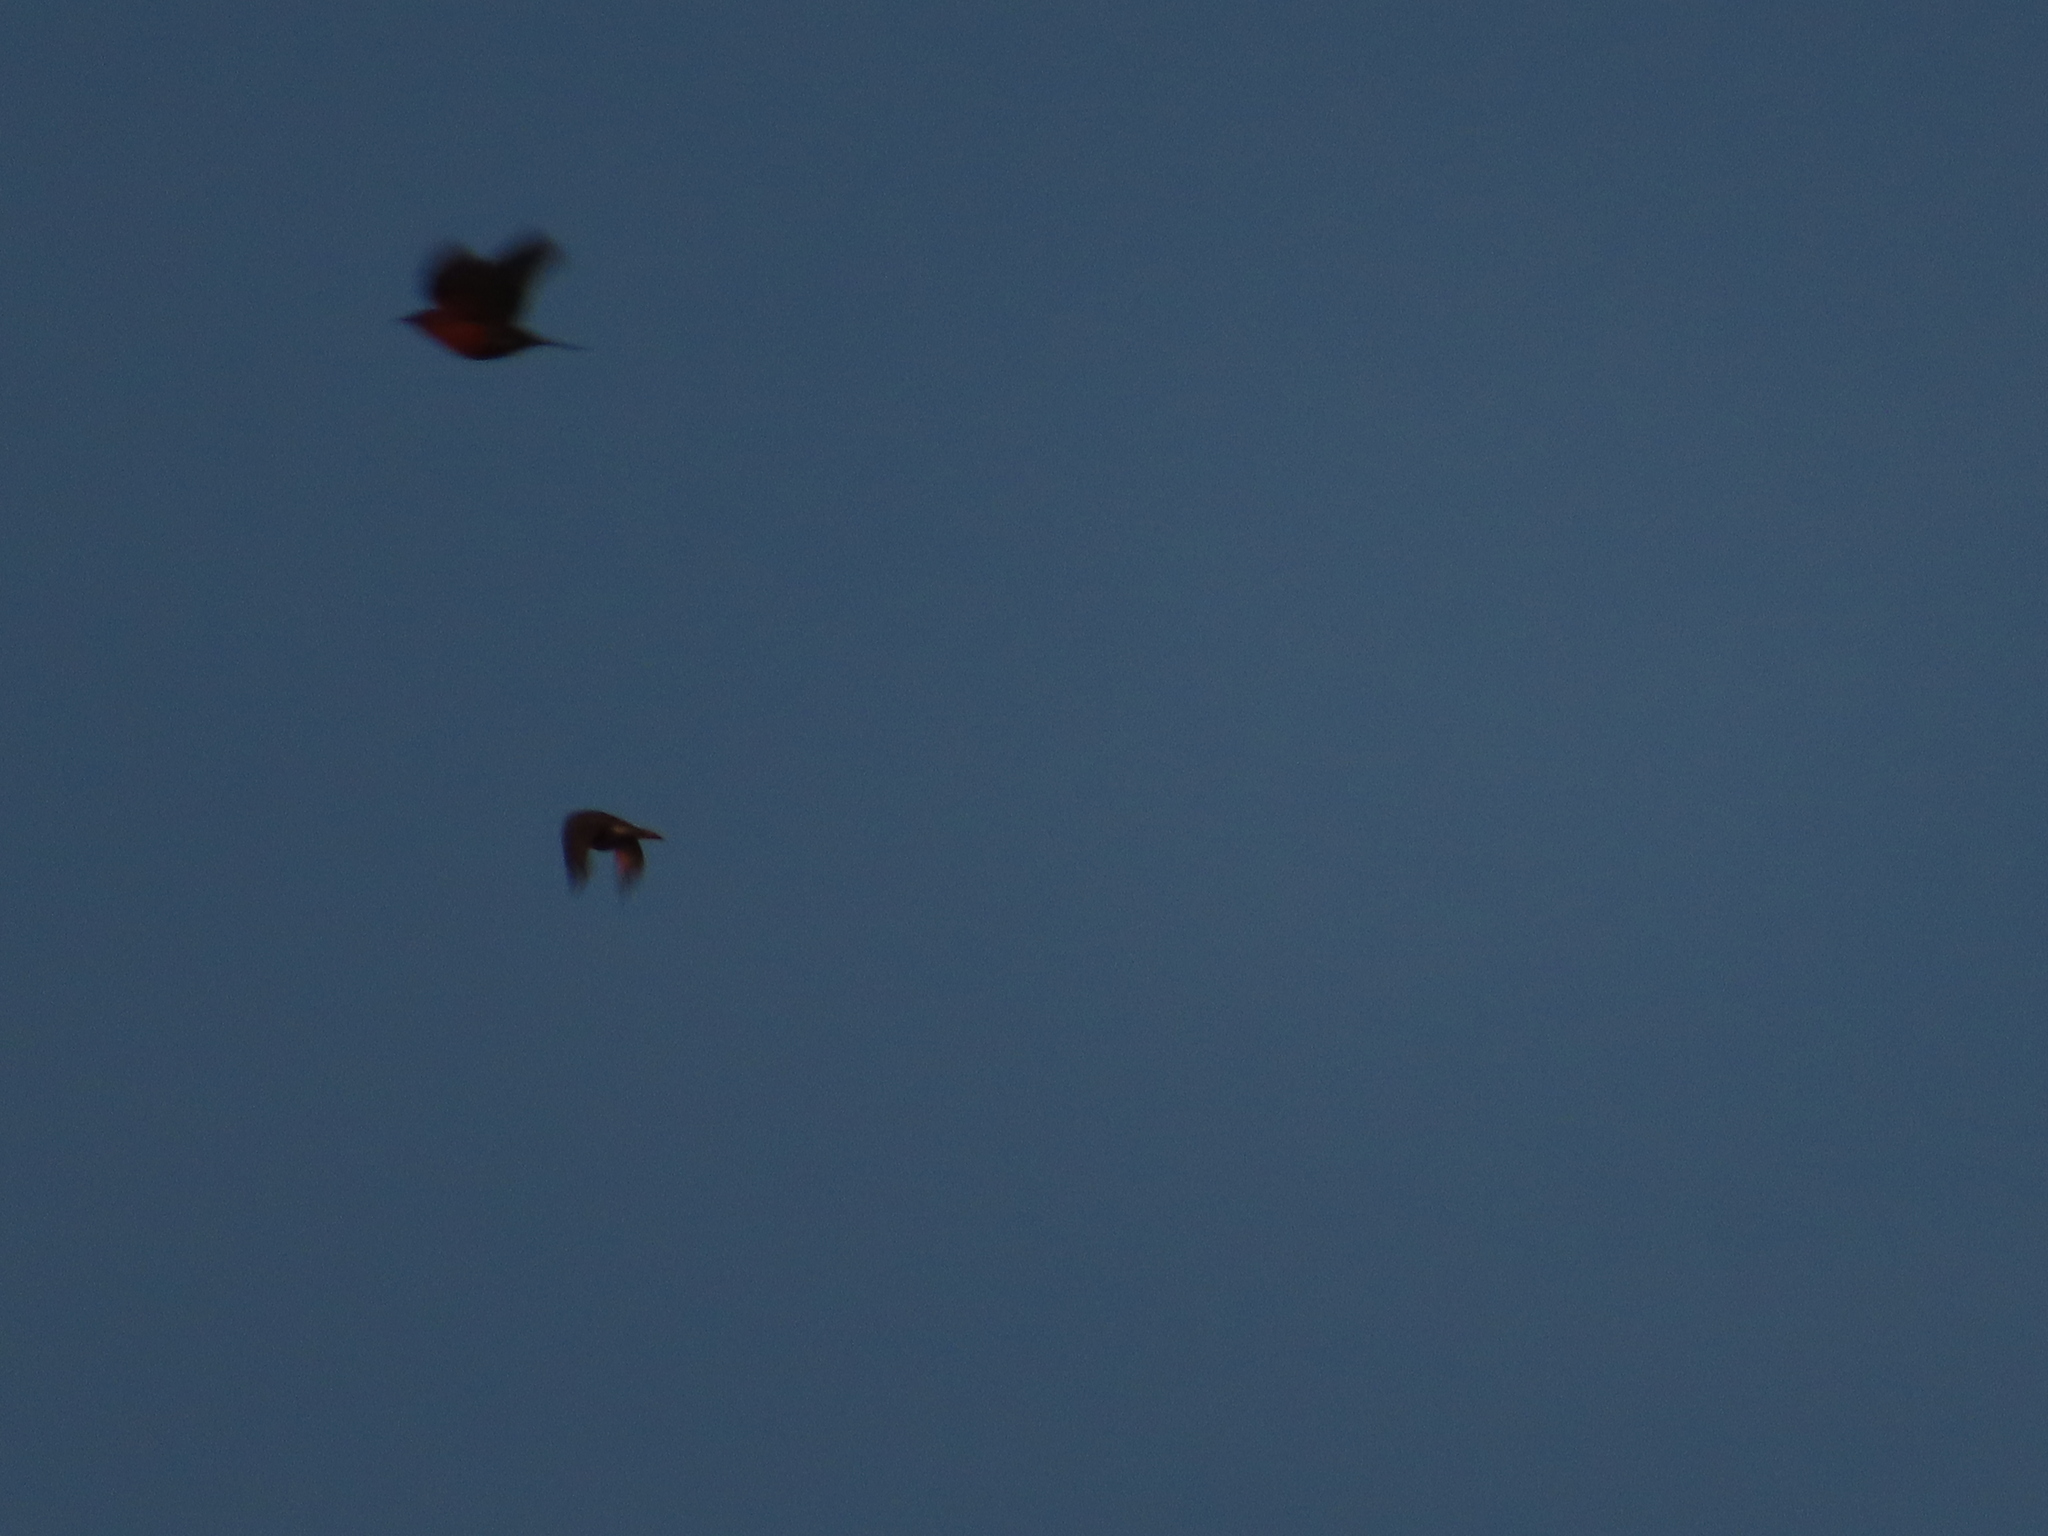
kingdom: Animalia
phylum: Chordata
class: Aves
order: Passeriformes
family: Turdidae
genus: Turdus
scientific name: Turdus migratorius
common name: American robin
